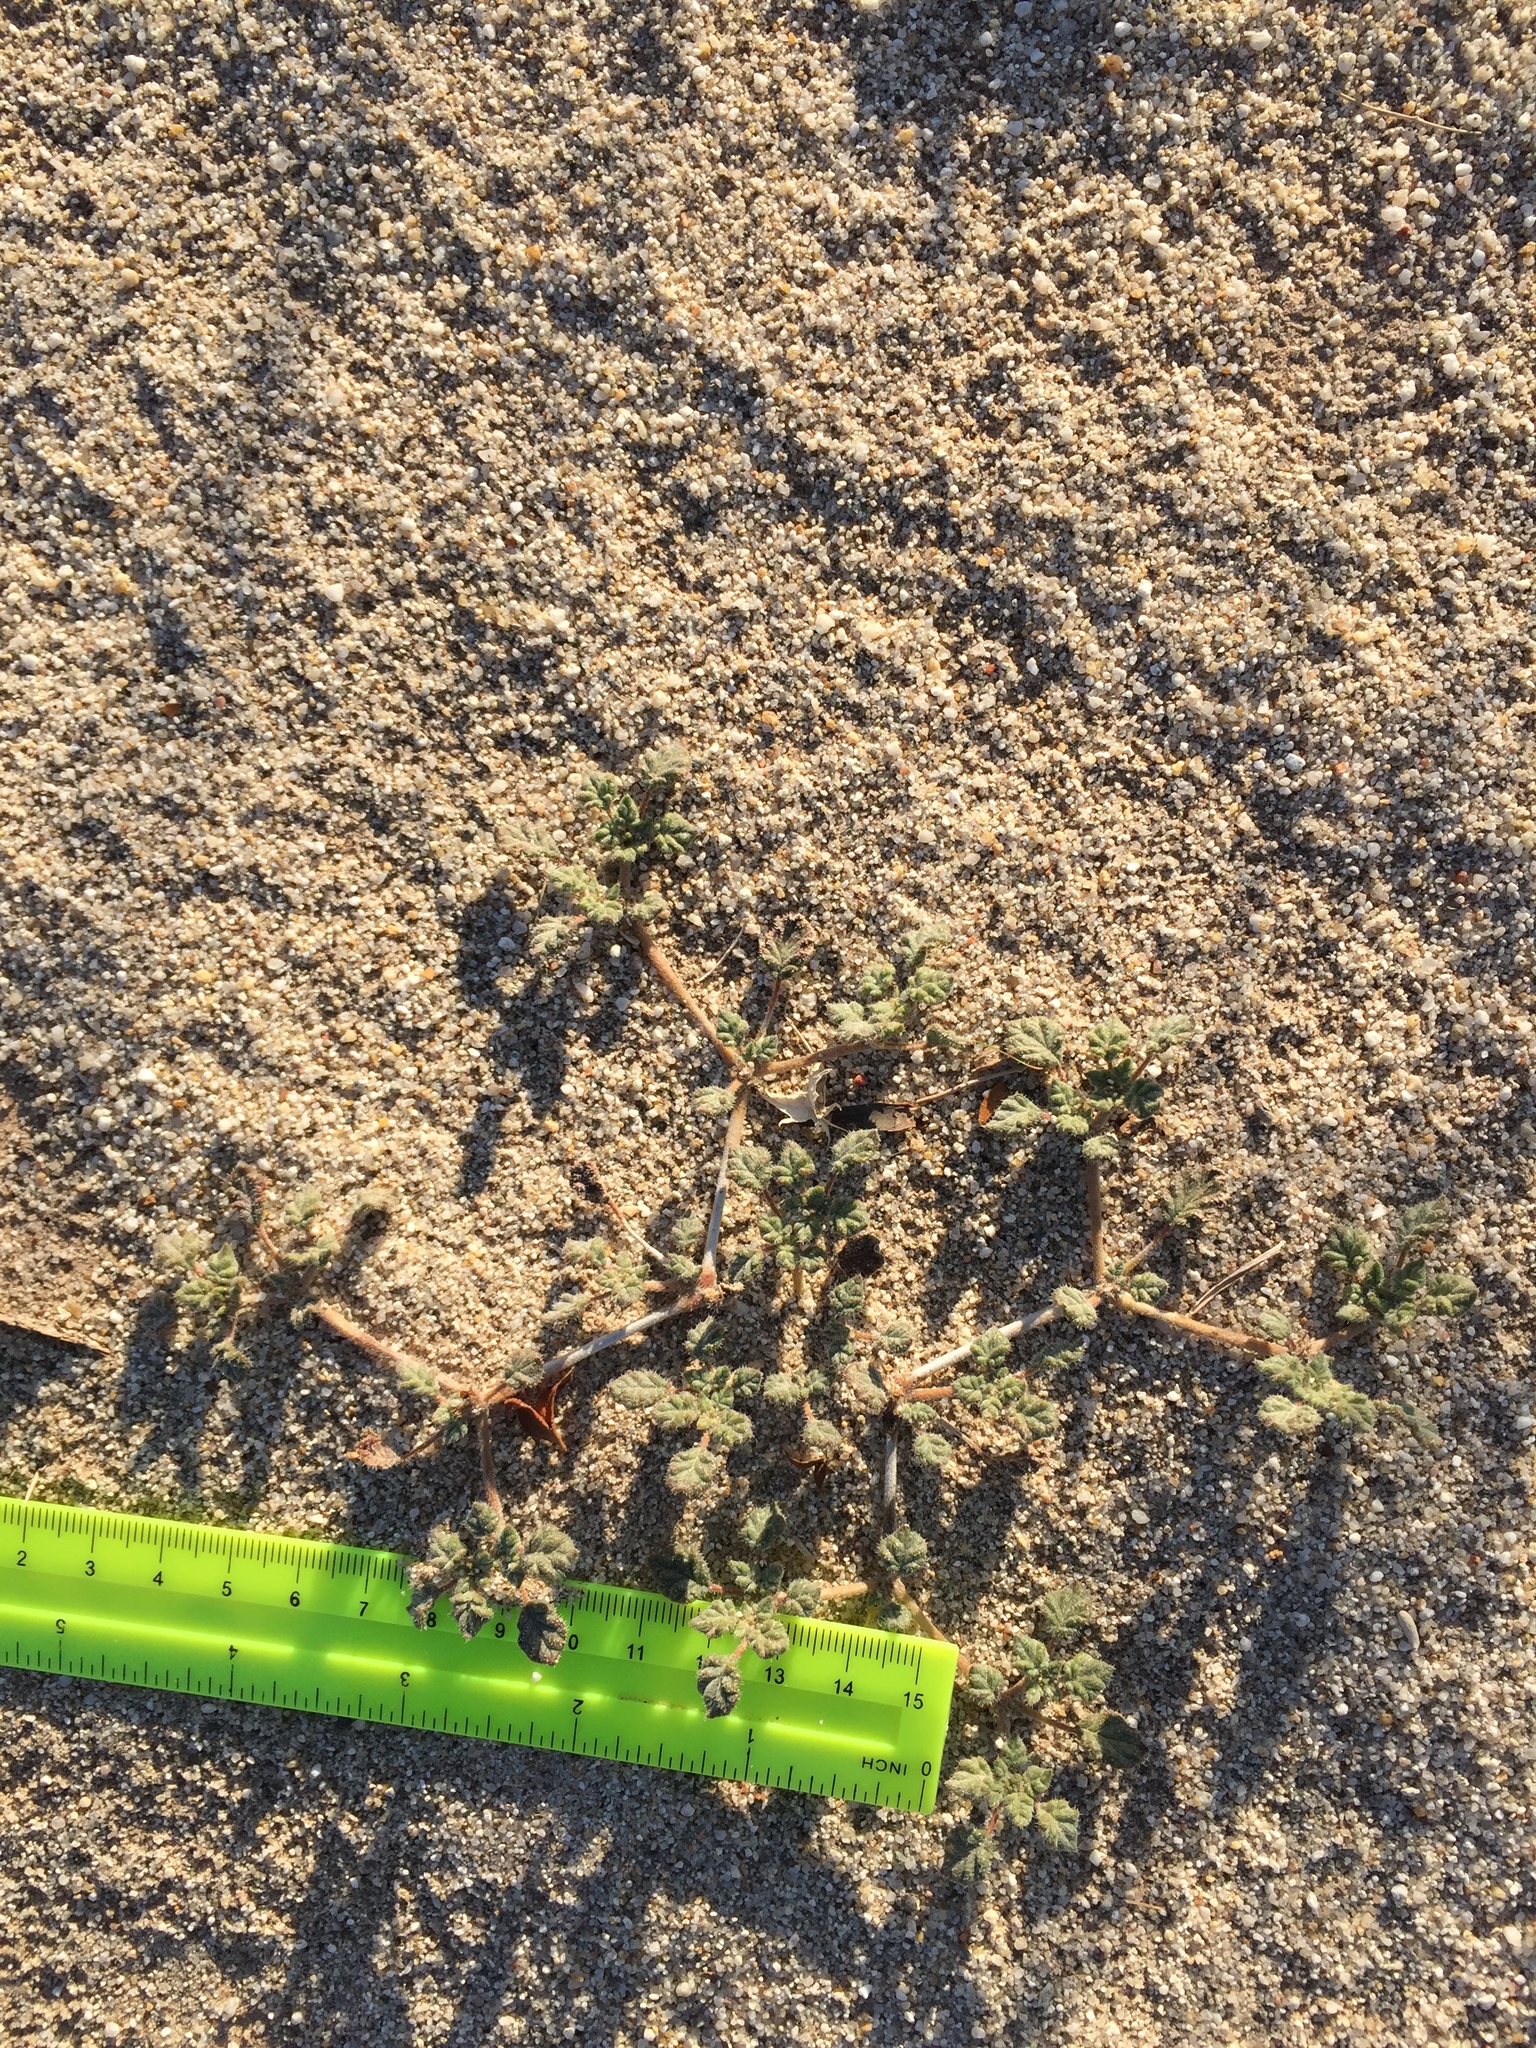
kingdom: Plantae
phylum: Tracheophyta
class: Magnoliopsida
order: Boraginales
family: Ehretiaceae
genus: Tiquilia
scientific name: Tiquilia palmeri
